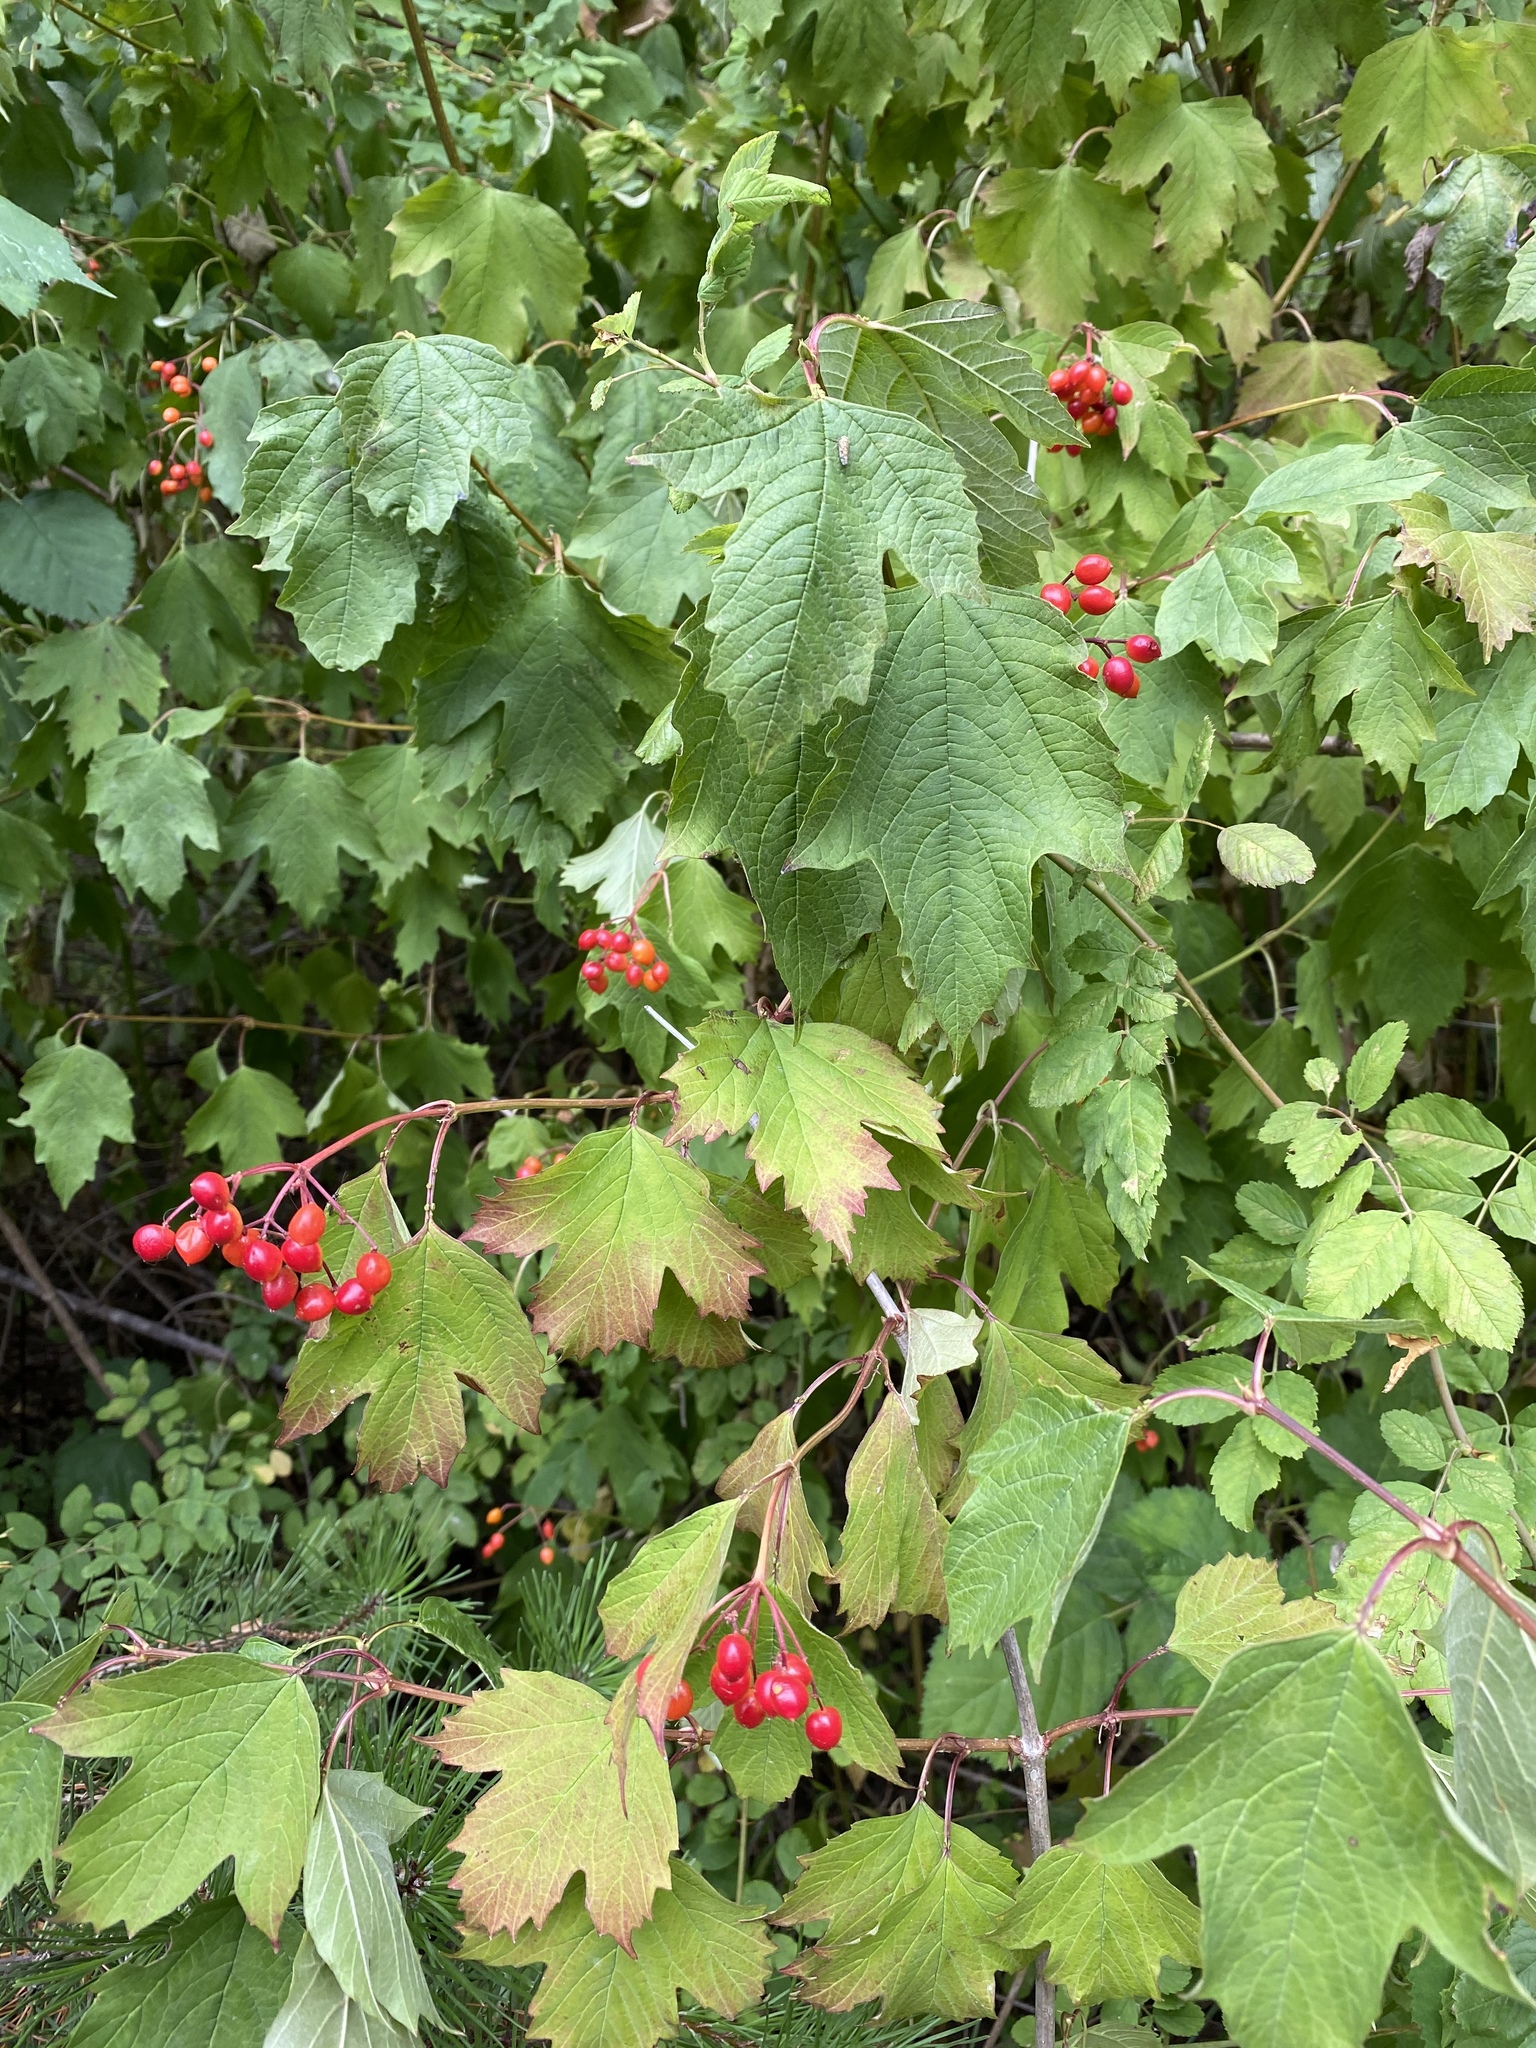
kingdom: Plantae
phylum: Tracheophyta
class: Magnoliopsida
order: Dipsacales
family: Viburnaceae
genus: Viburnum
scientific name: Viburnum opulus
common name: Guelder-rose
